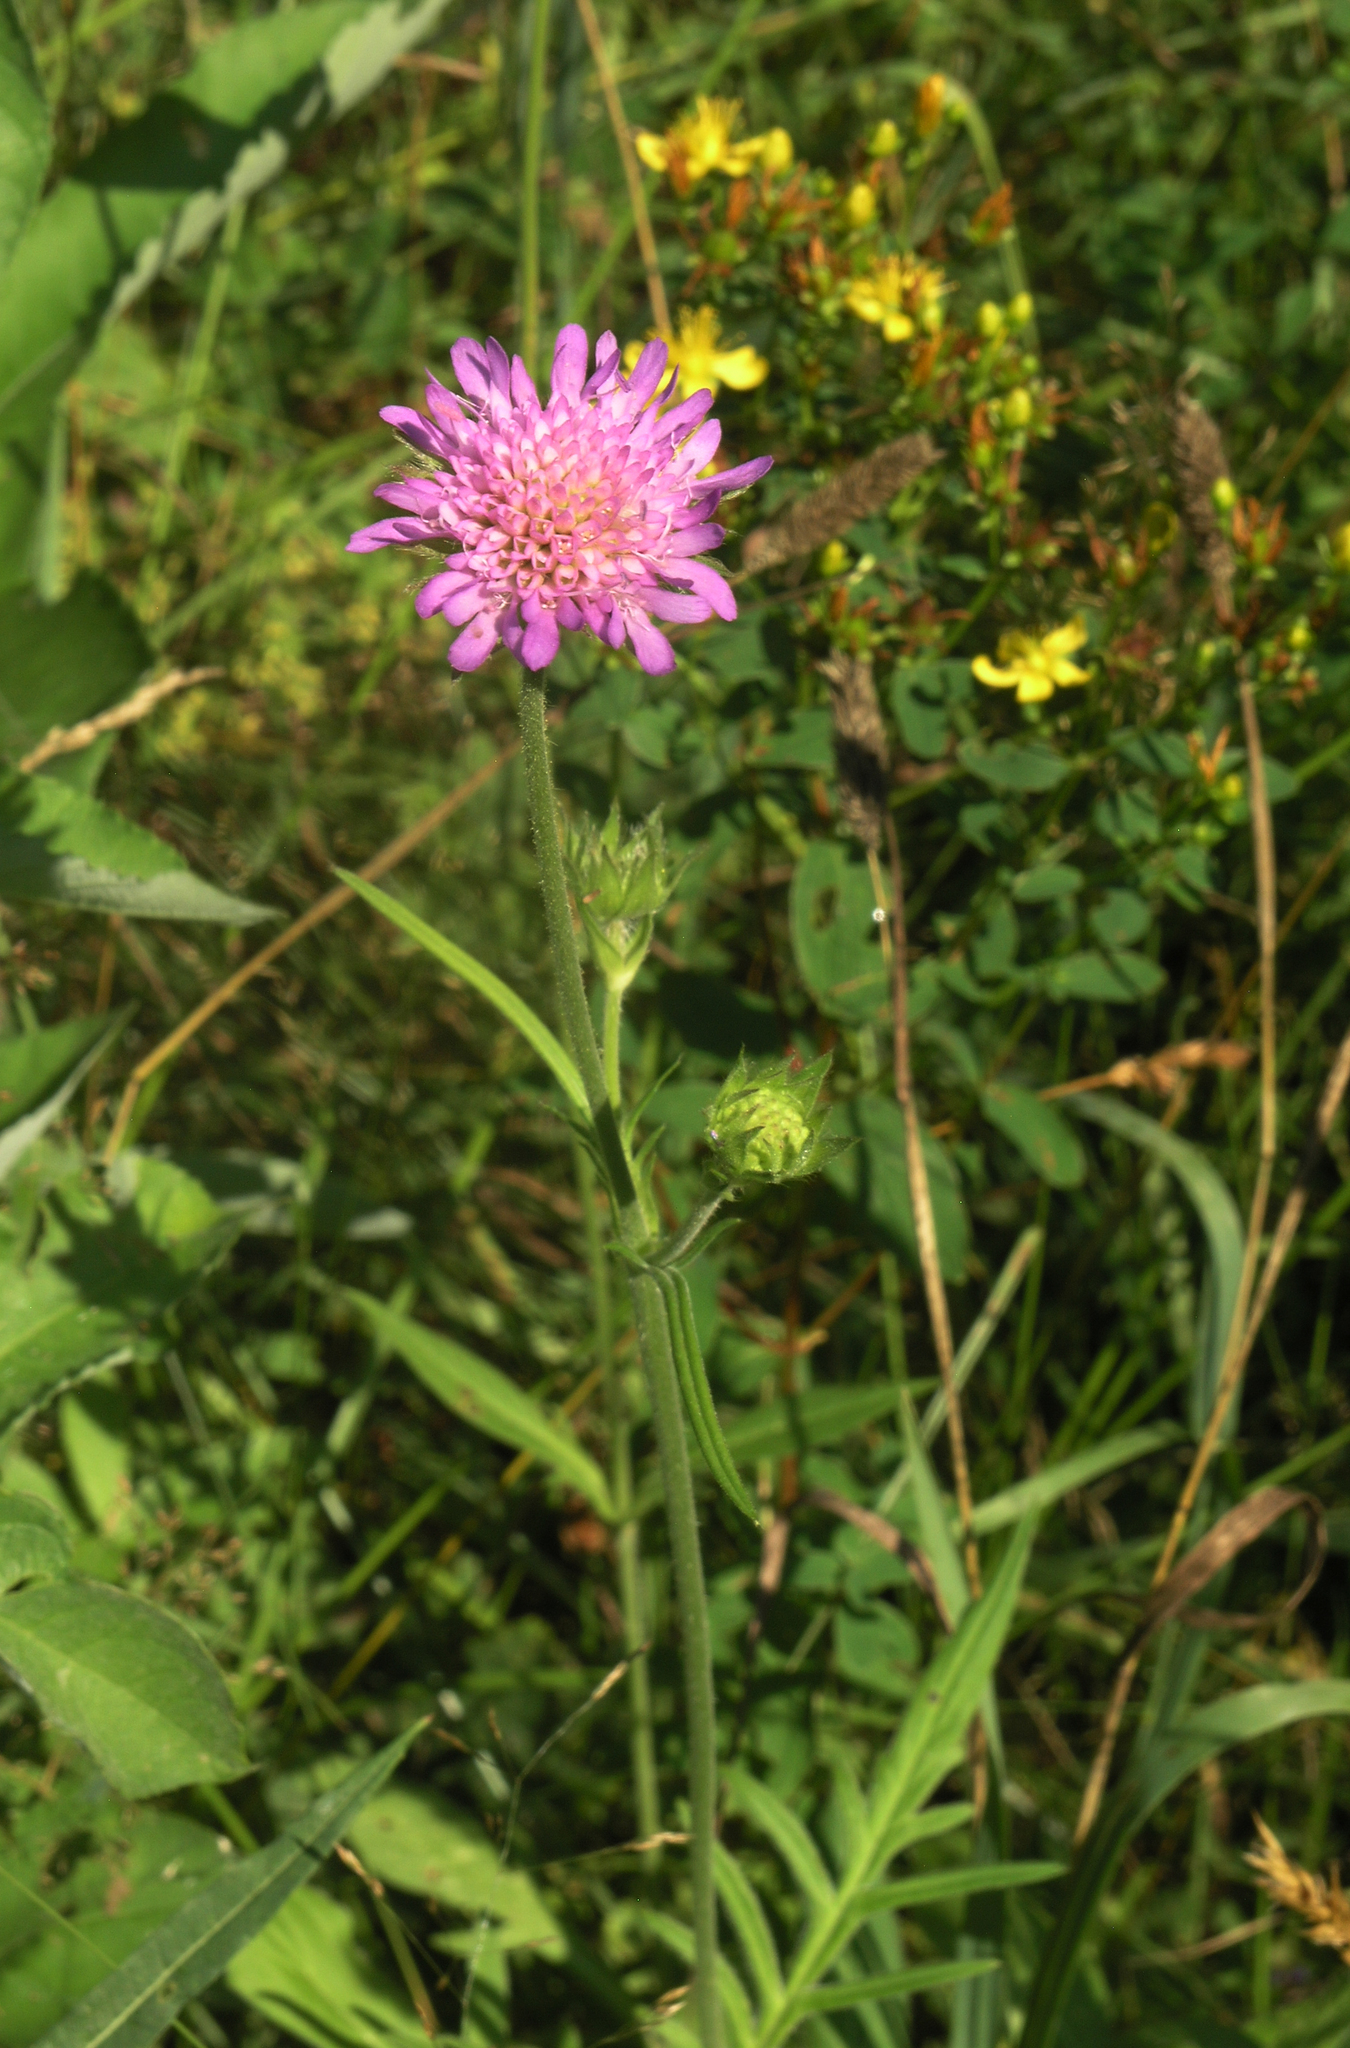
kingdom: Plantae
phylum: Tracheophyta
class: Magnoliopsida
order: Dipsacales
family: Caprifoliaceae
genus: Knautia
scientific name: Knautia arvensis
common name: Field scabiosa
